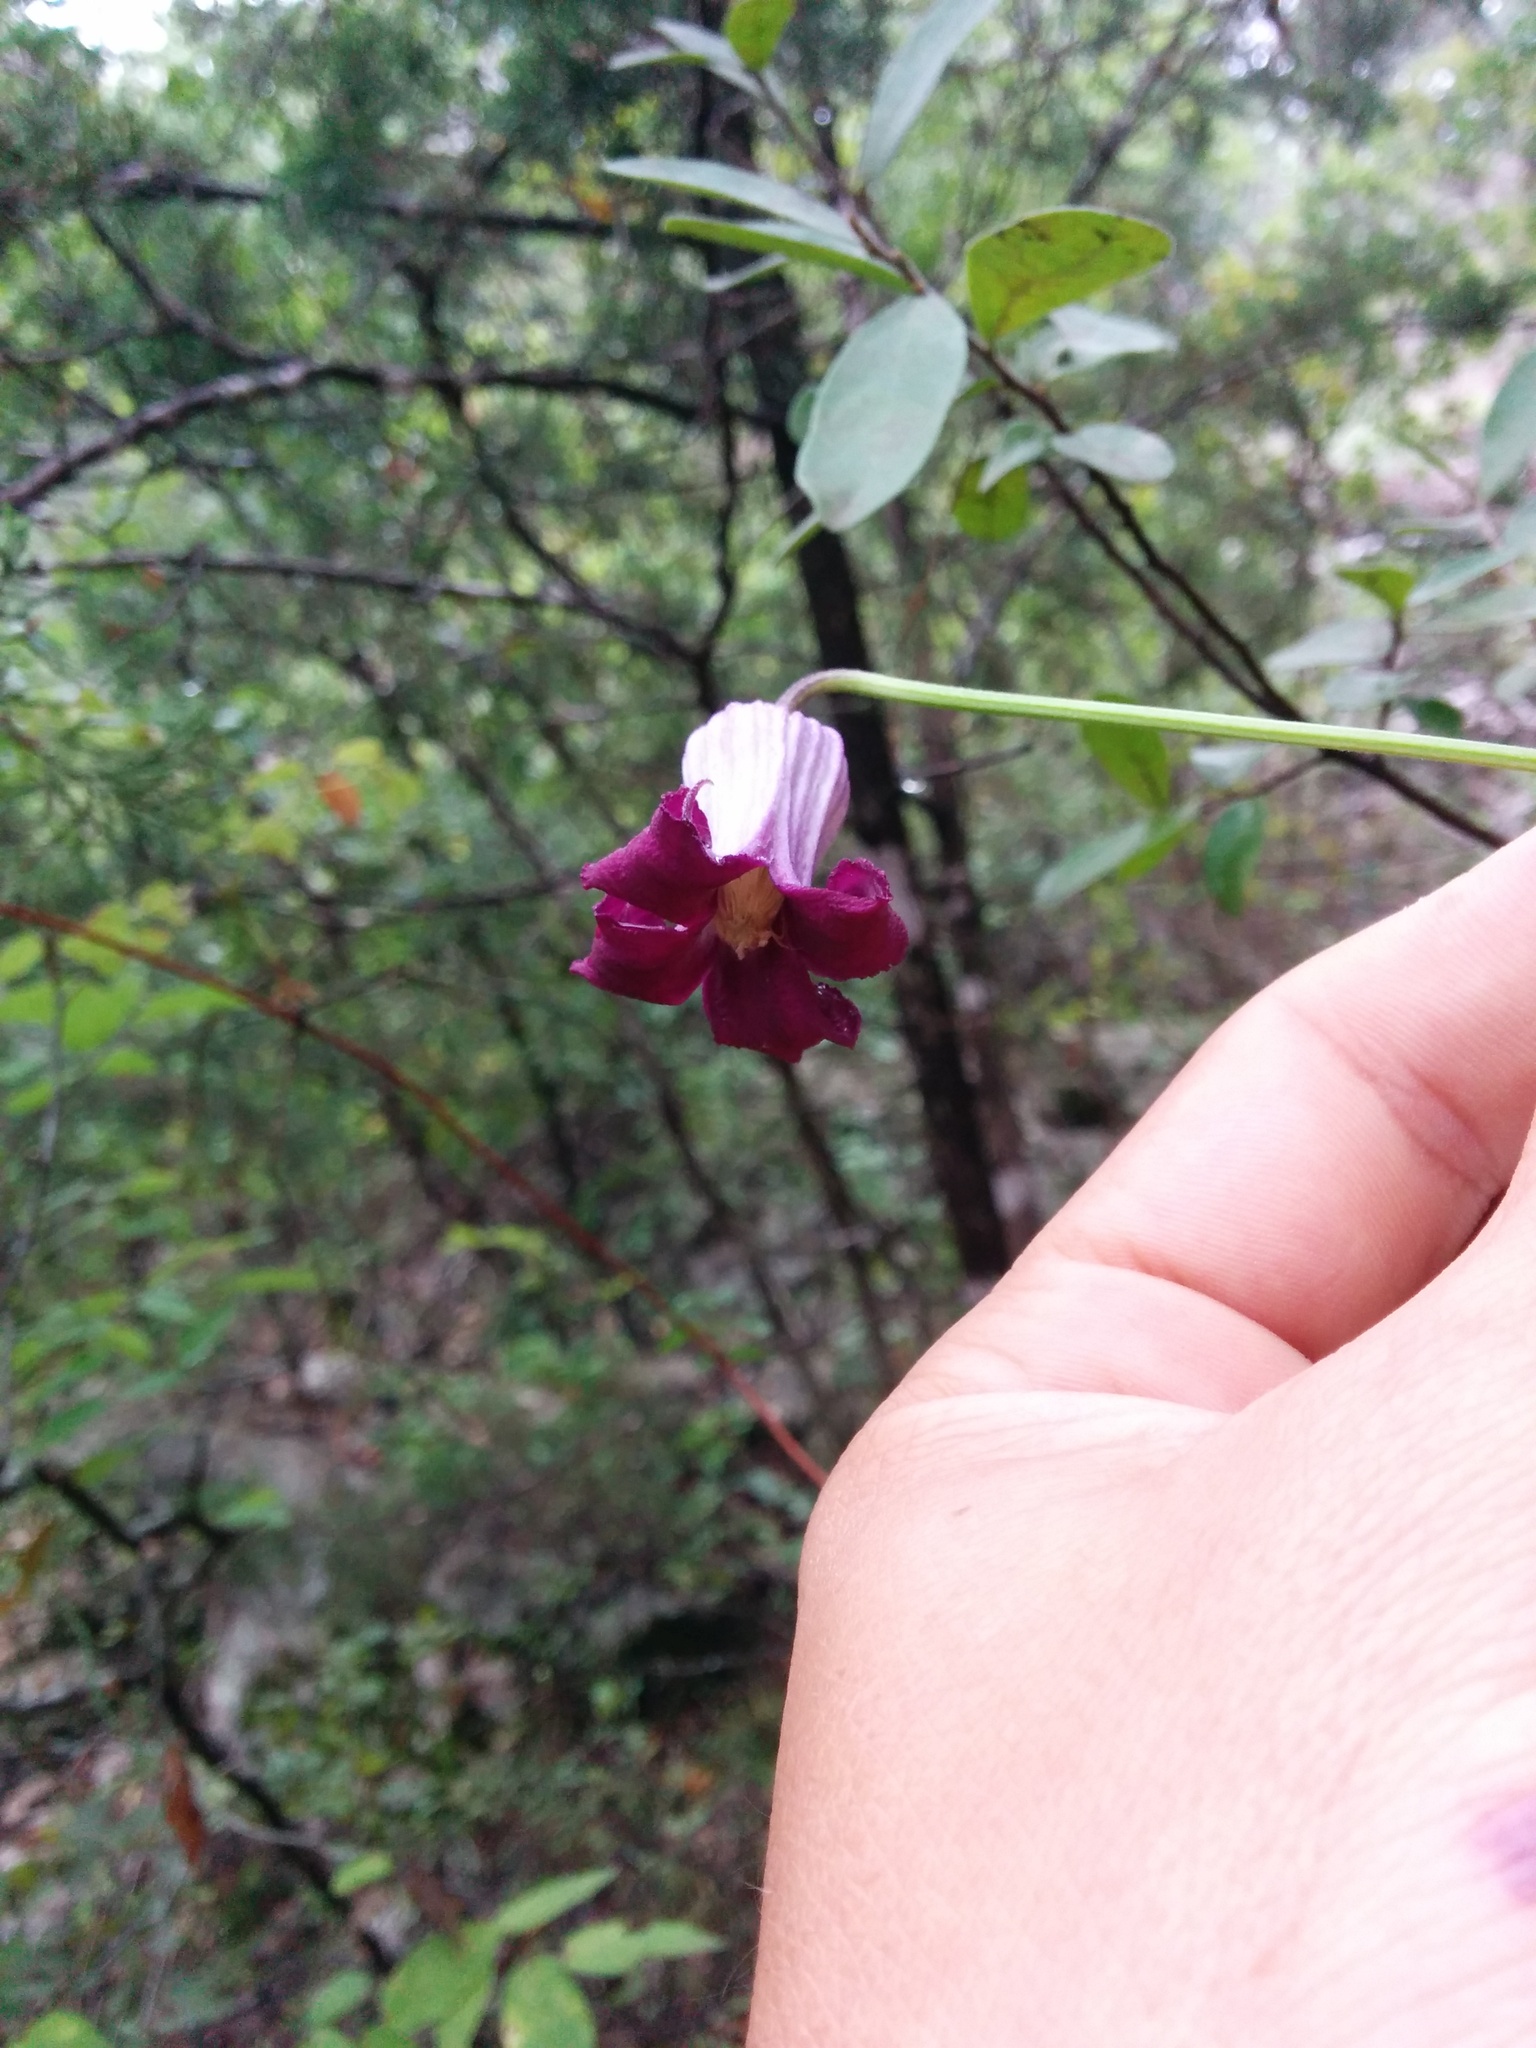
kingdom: Plantae
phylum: Tracheophyta
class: Magnoliopsida
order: Ranunculales
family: Ranunculaceae
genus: Clematis
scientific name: Clematis pitcheri
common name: Bellflower clematis
